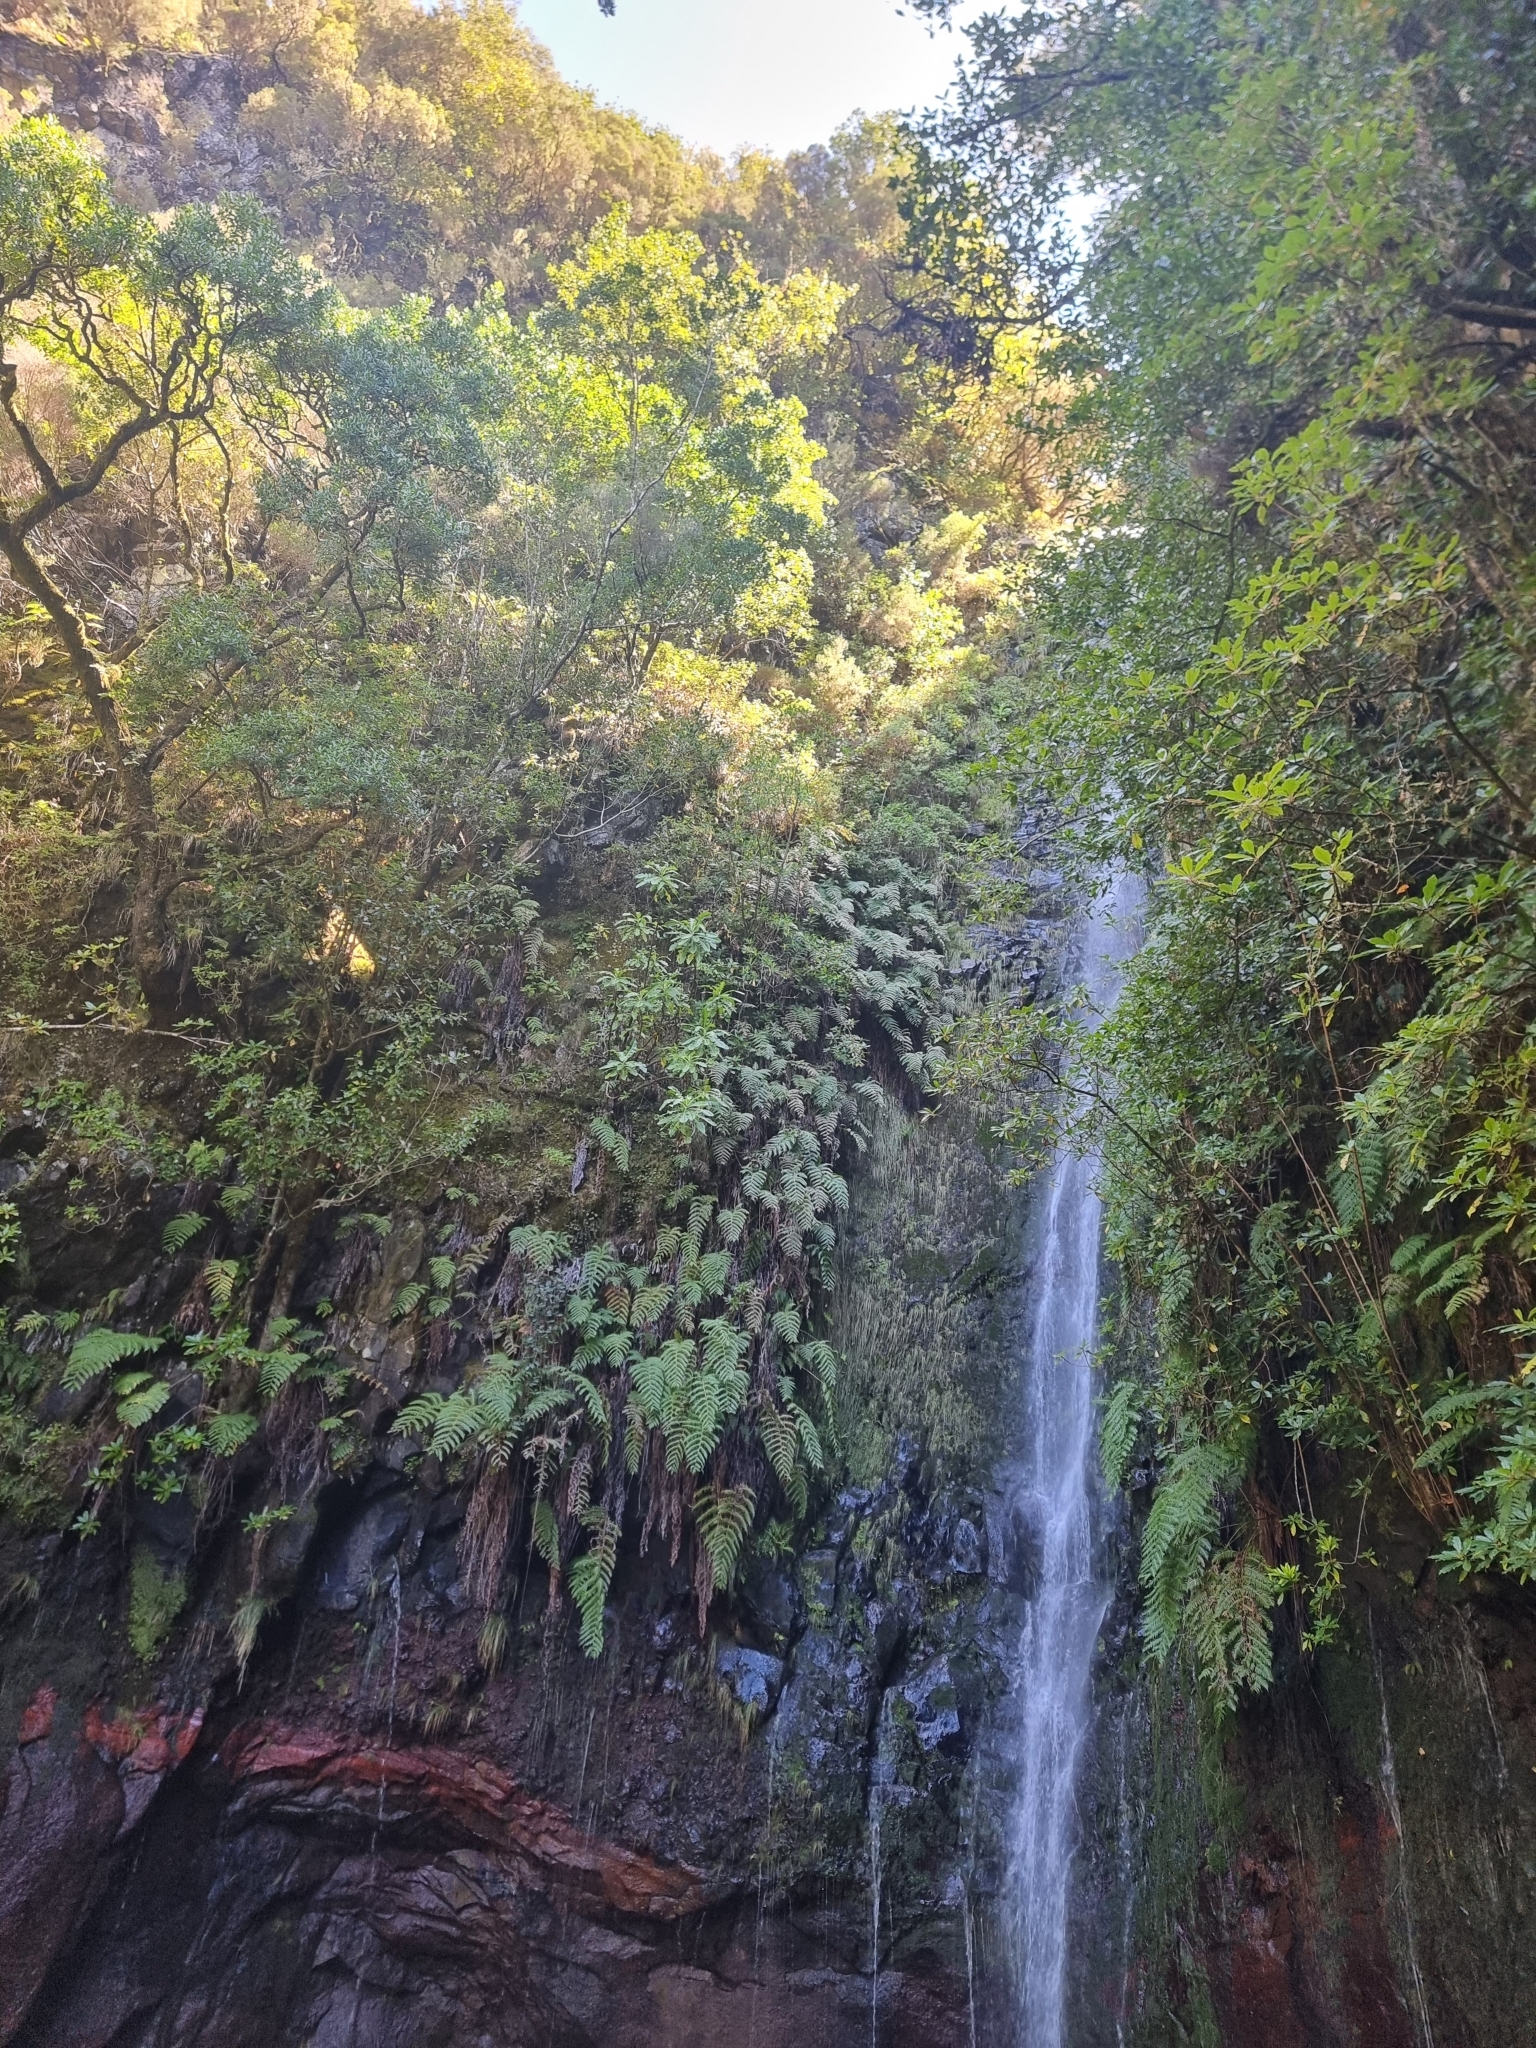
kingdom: Plantae
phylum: Tracheophyta
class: Magnoliopsida
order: Asterales
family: Asteraceae
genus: Sonchus
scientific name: Sonchus fruticosus
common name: Shrubby sow-thistle
